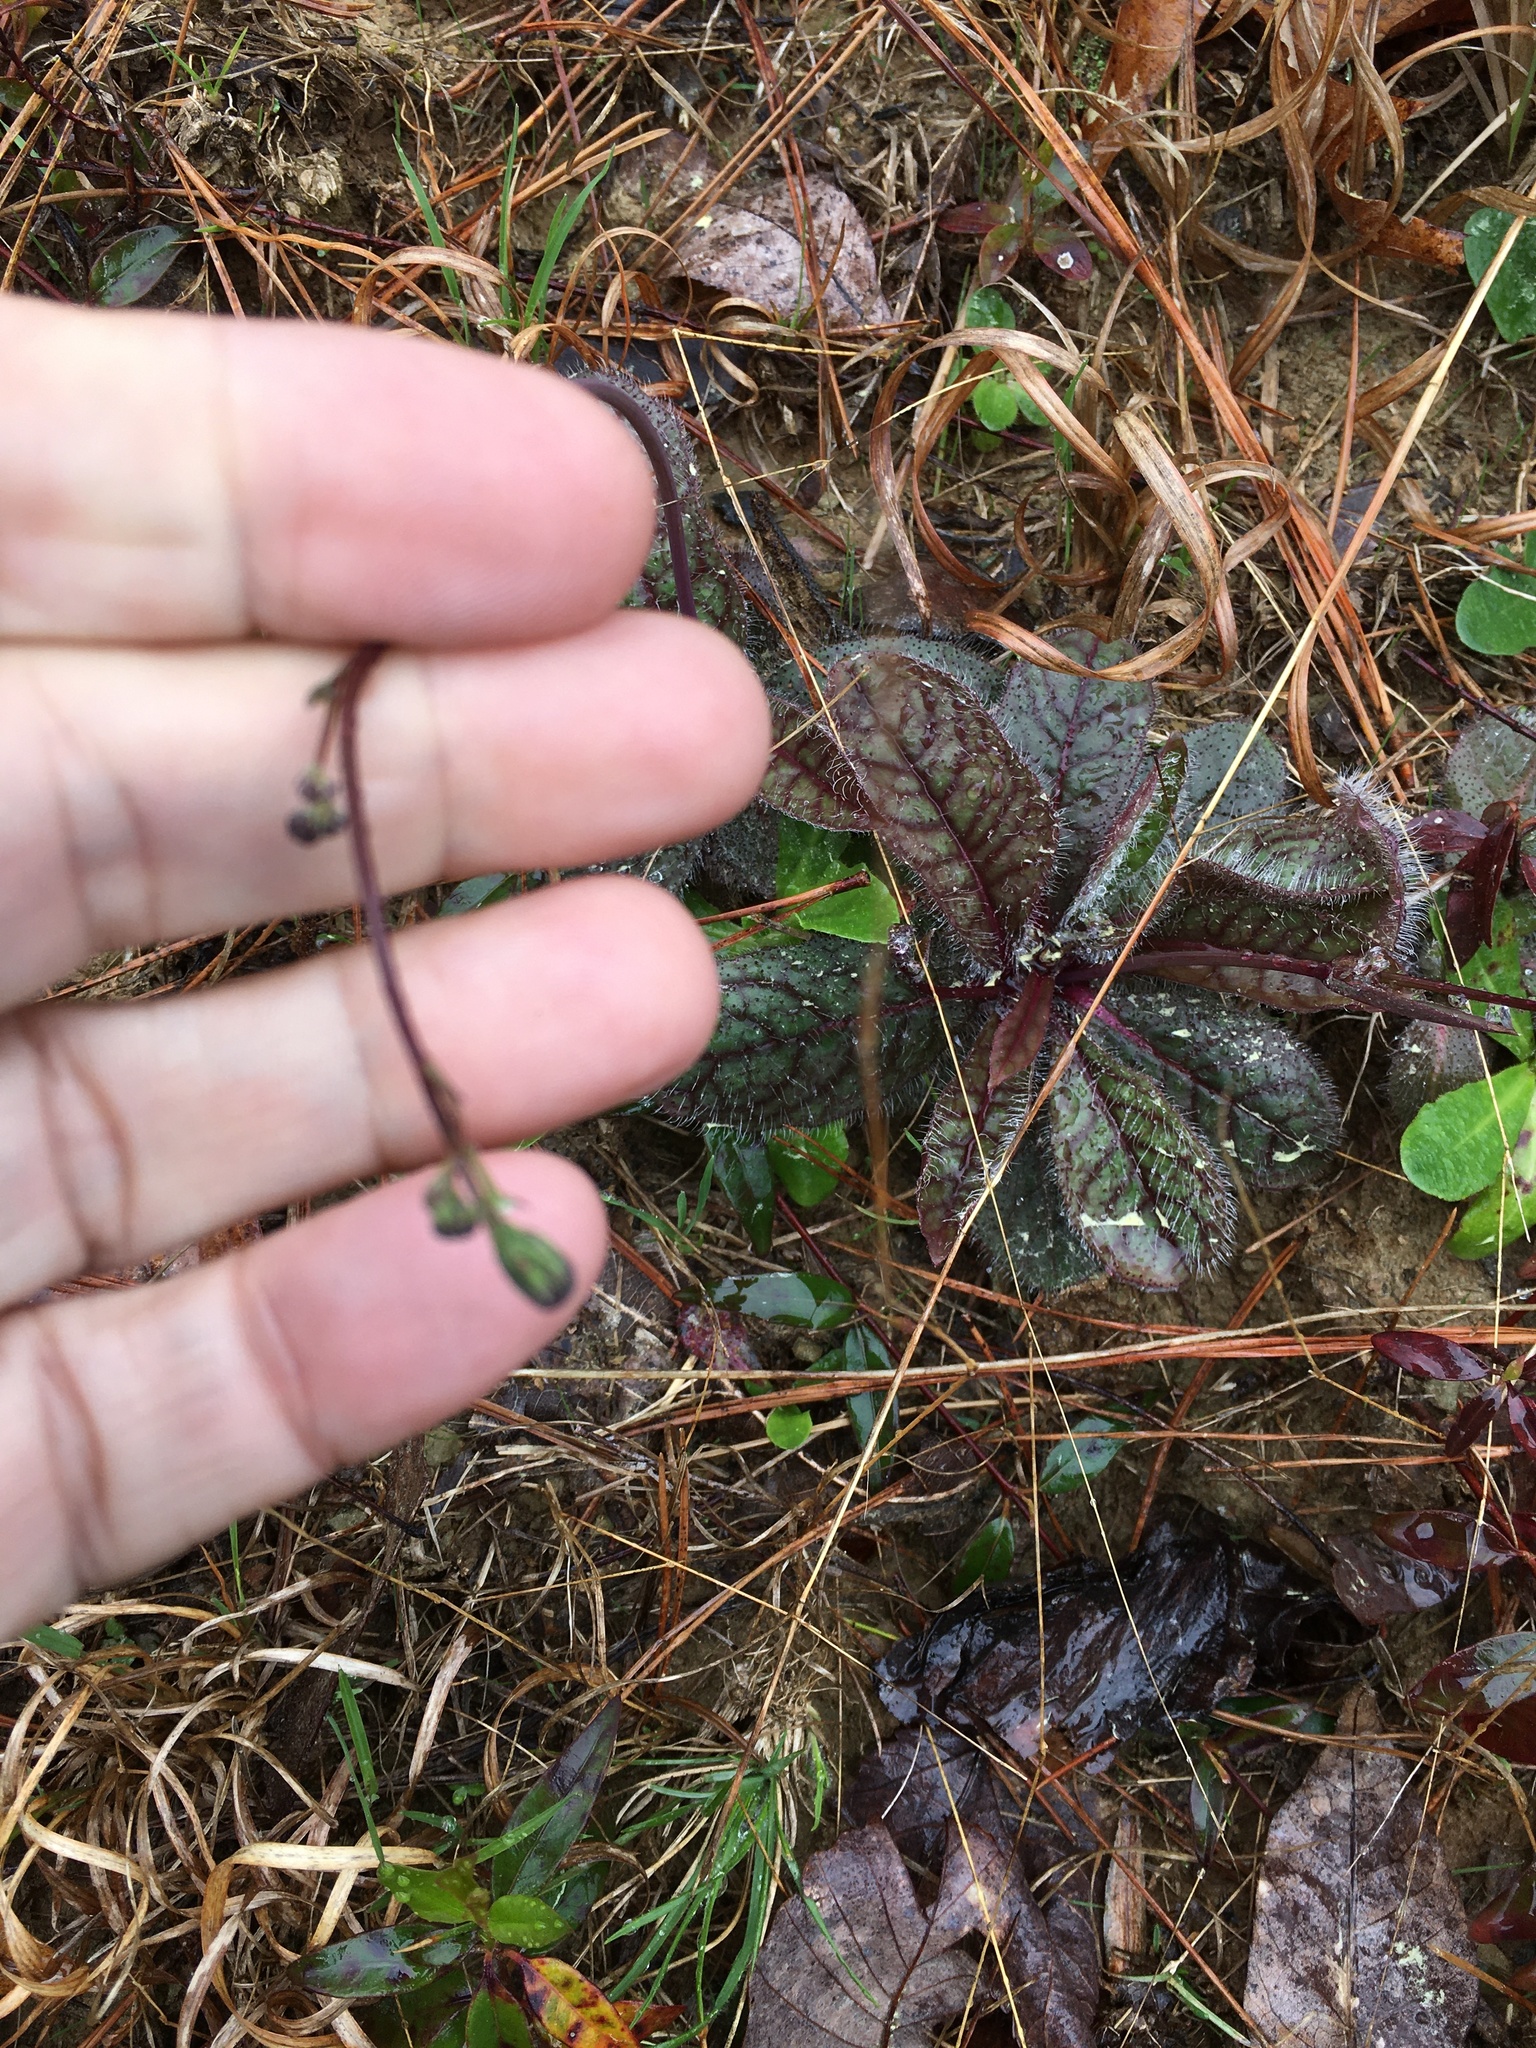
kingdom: Plantae
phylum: Tracheophyta
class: Magnoliopsida
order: Asterales
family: Asteraceae
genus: Hieracium
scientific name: Hieracium venosum
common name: Rattlesnake hawkweed
